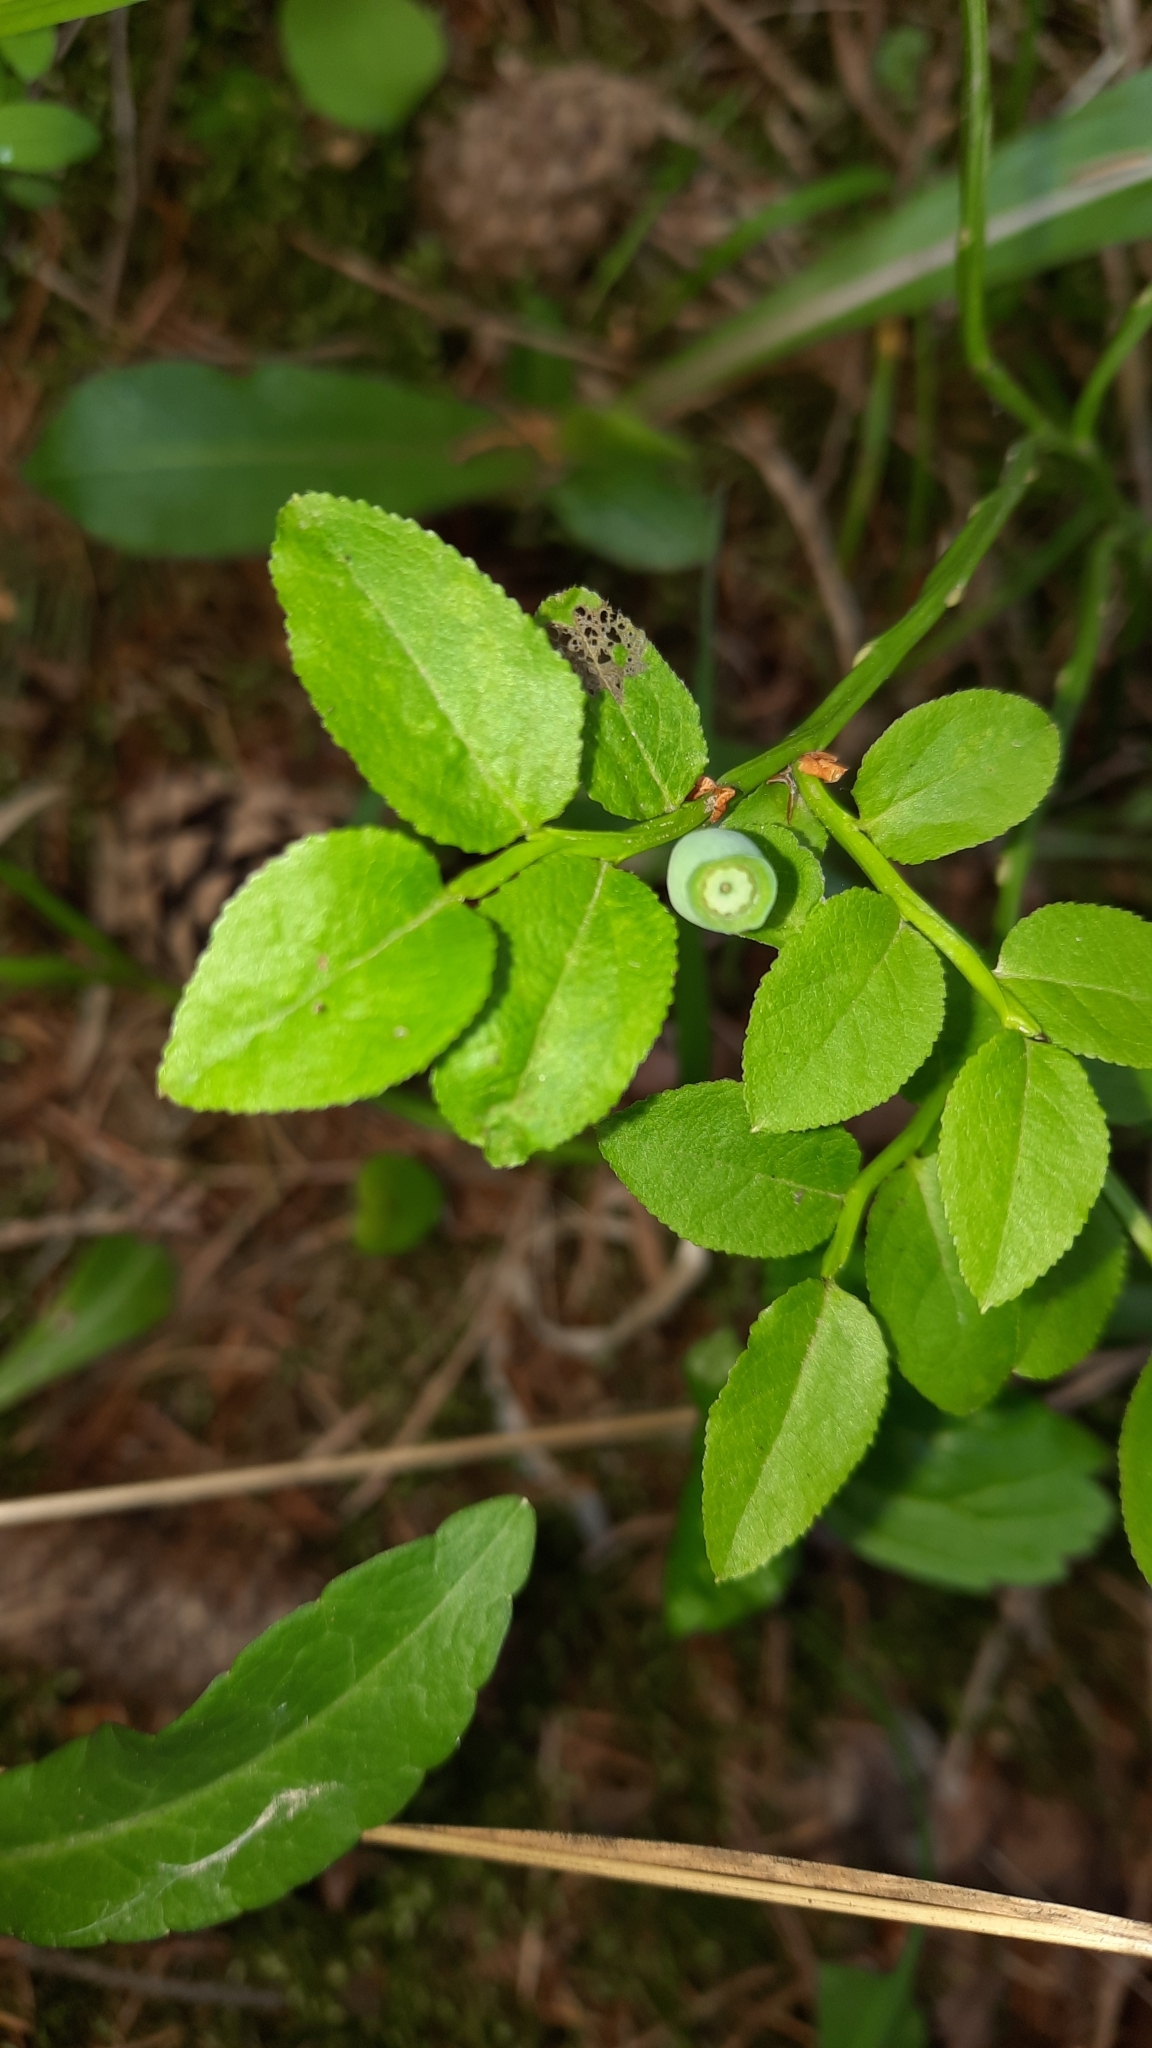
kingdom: Plantae
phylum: Tracheophyta
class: Magnoliopsida
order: Ericales
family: Ericaceae
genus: Vaccinium
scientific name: Vaccinium myrtillus
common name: Bilberry
